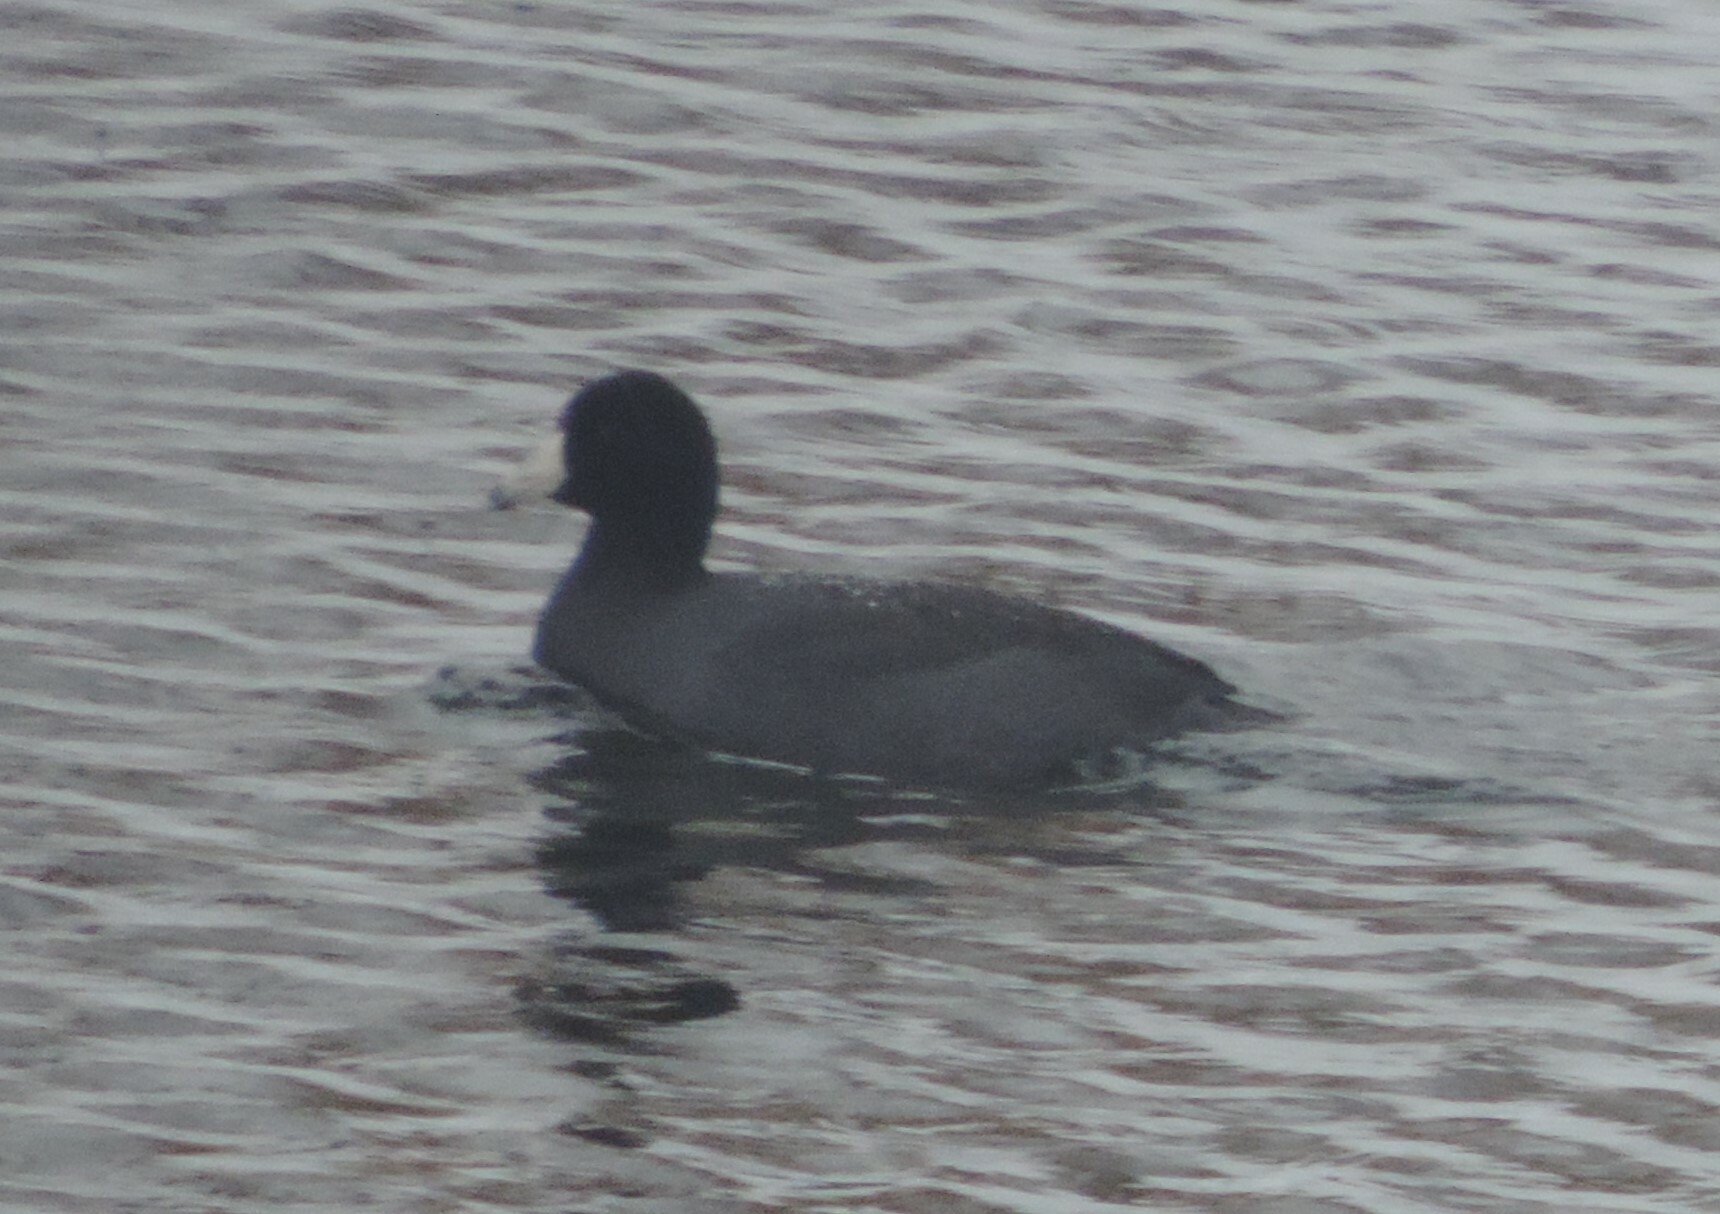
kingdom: Animalia
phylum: Chordata
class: Aves
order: Gruiformes
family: Rallidae
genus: Fulica
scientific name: Fulica americana
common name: American coot
